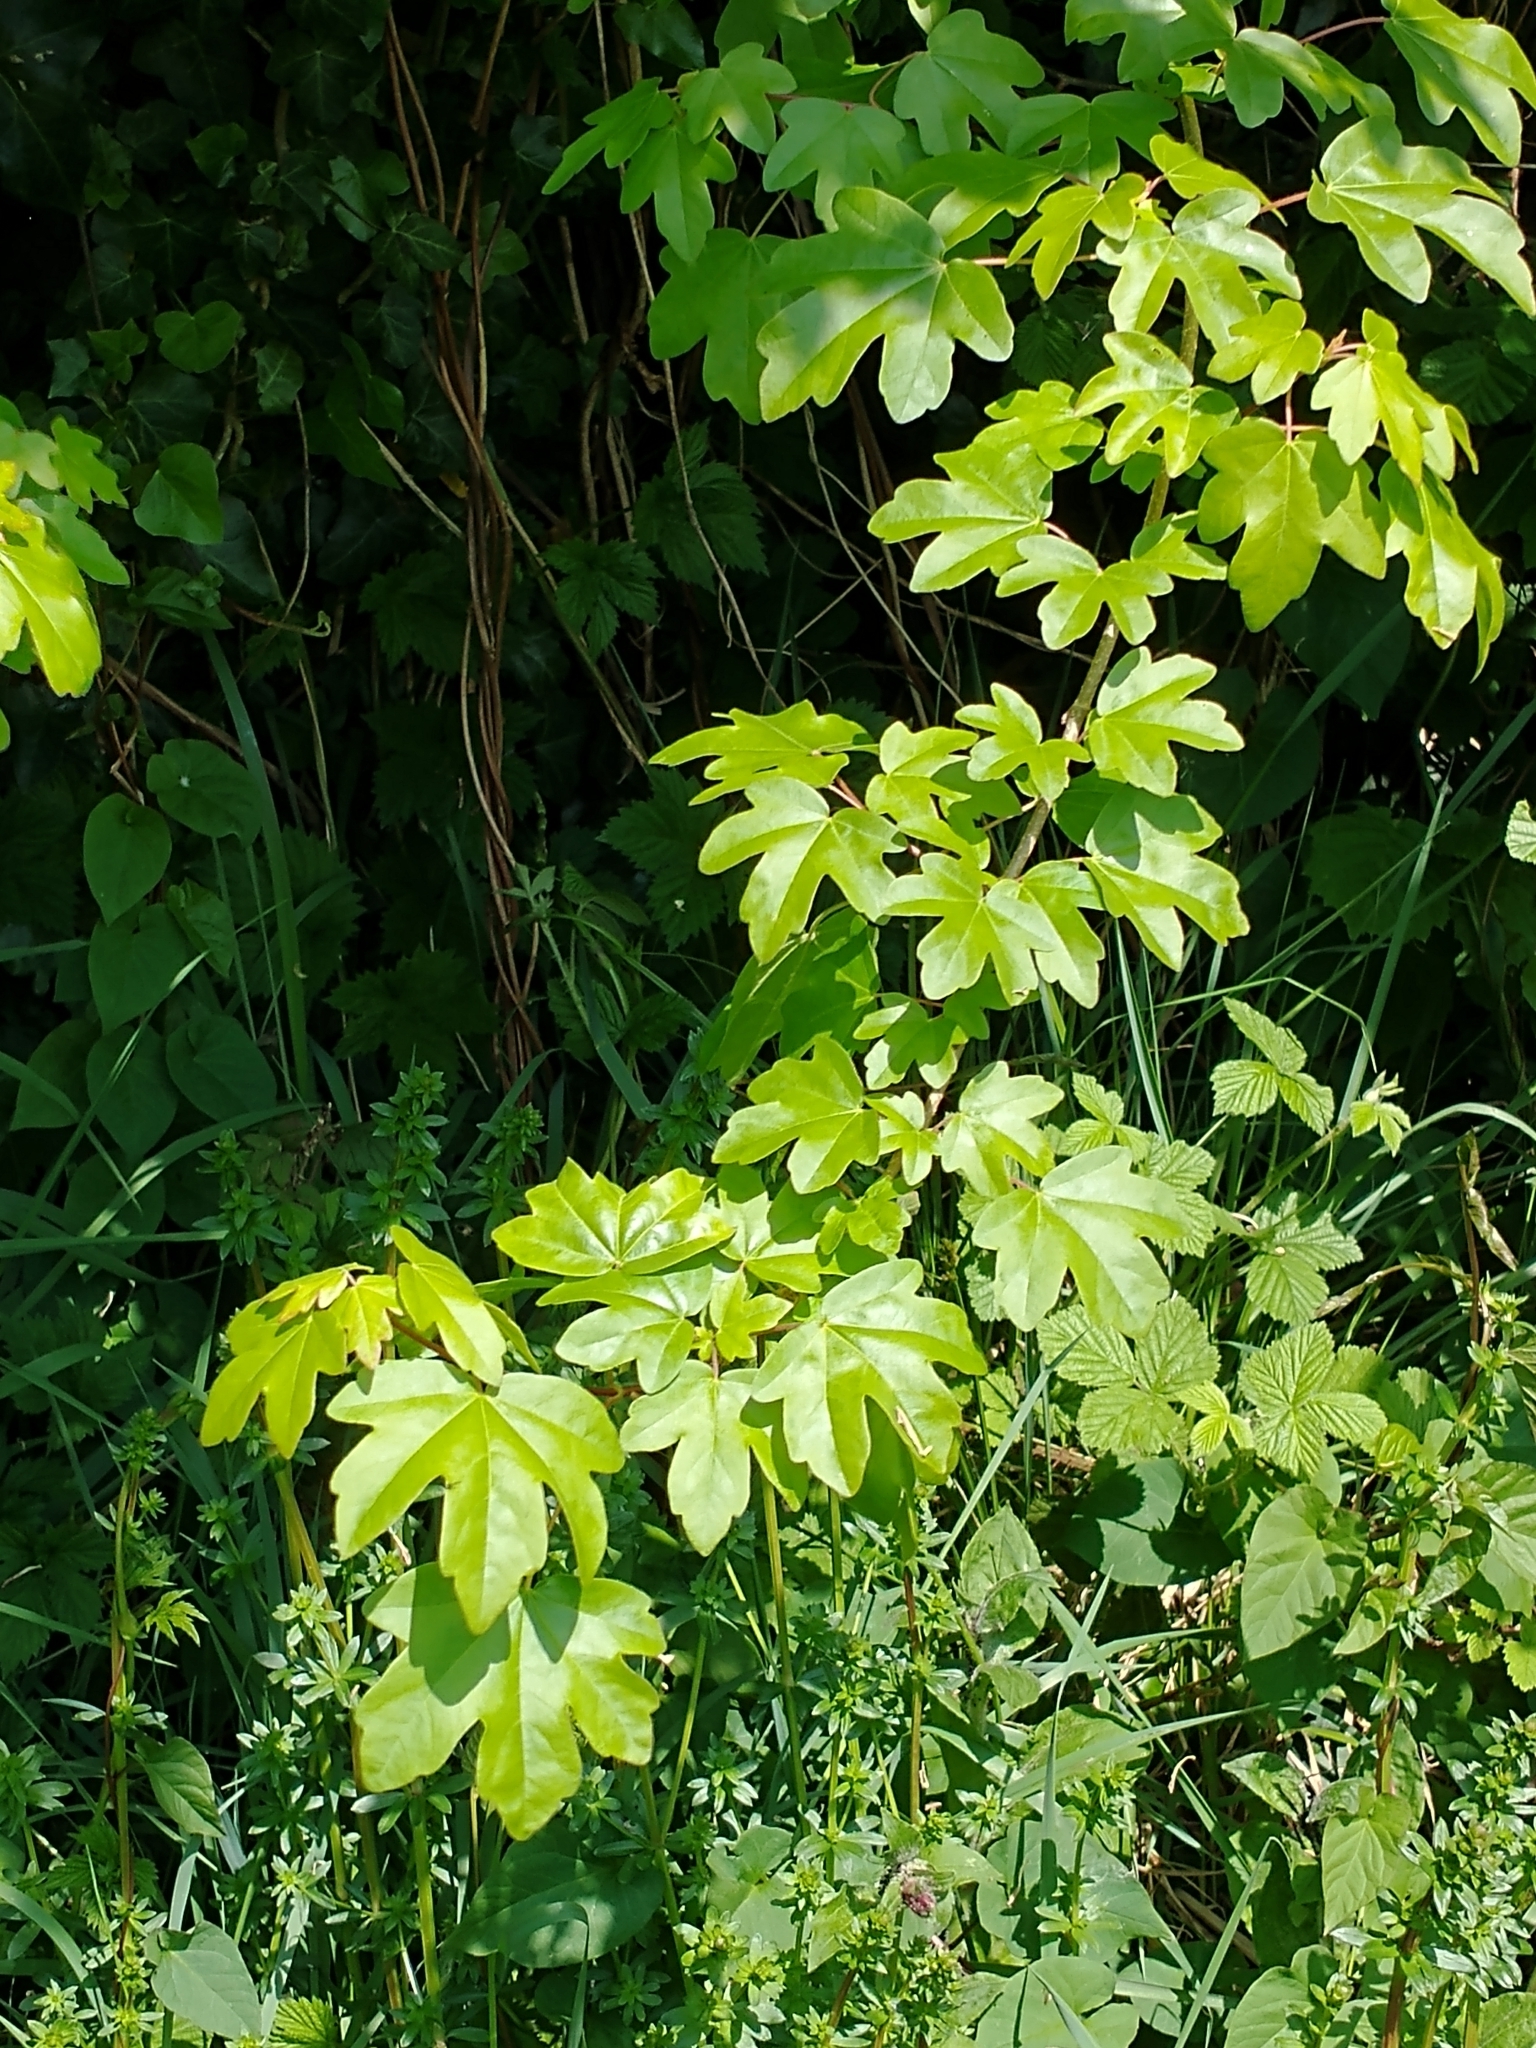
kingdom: Plantae
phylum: Tracheophyta
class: Magnoliopsida
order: Sapindales
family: Sapindaceae
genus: Acer
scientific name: Acer campestre
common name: Field maple
